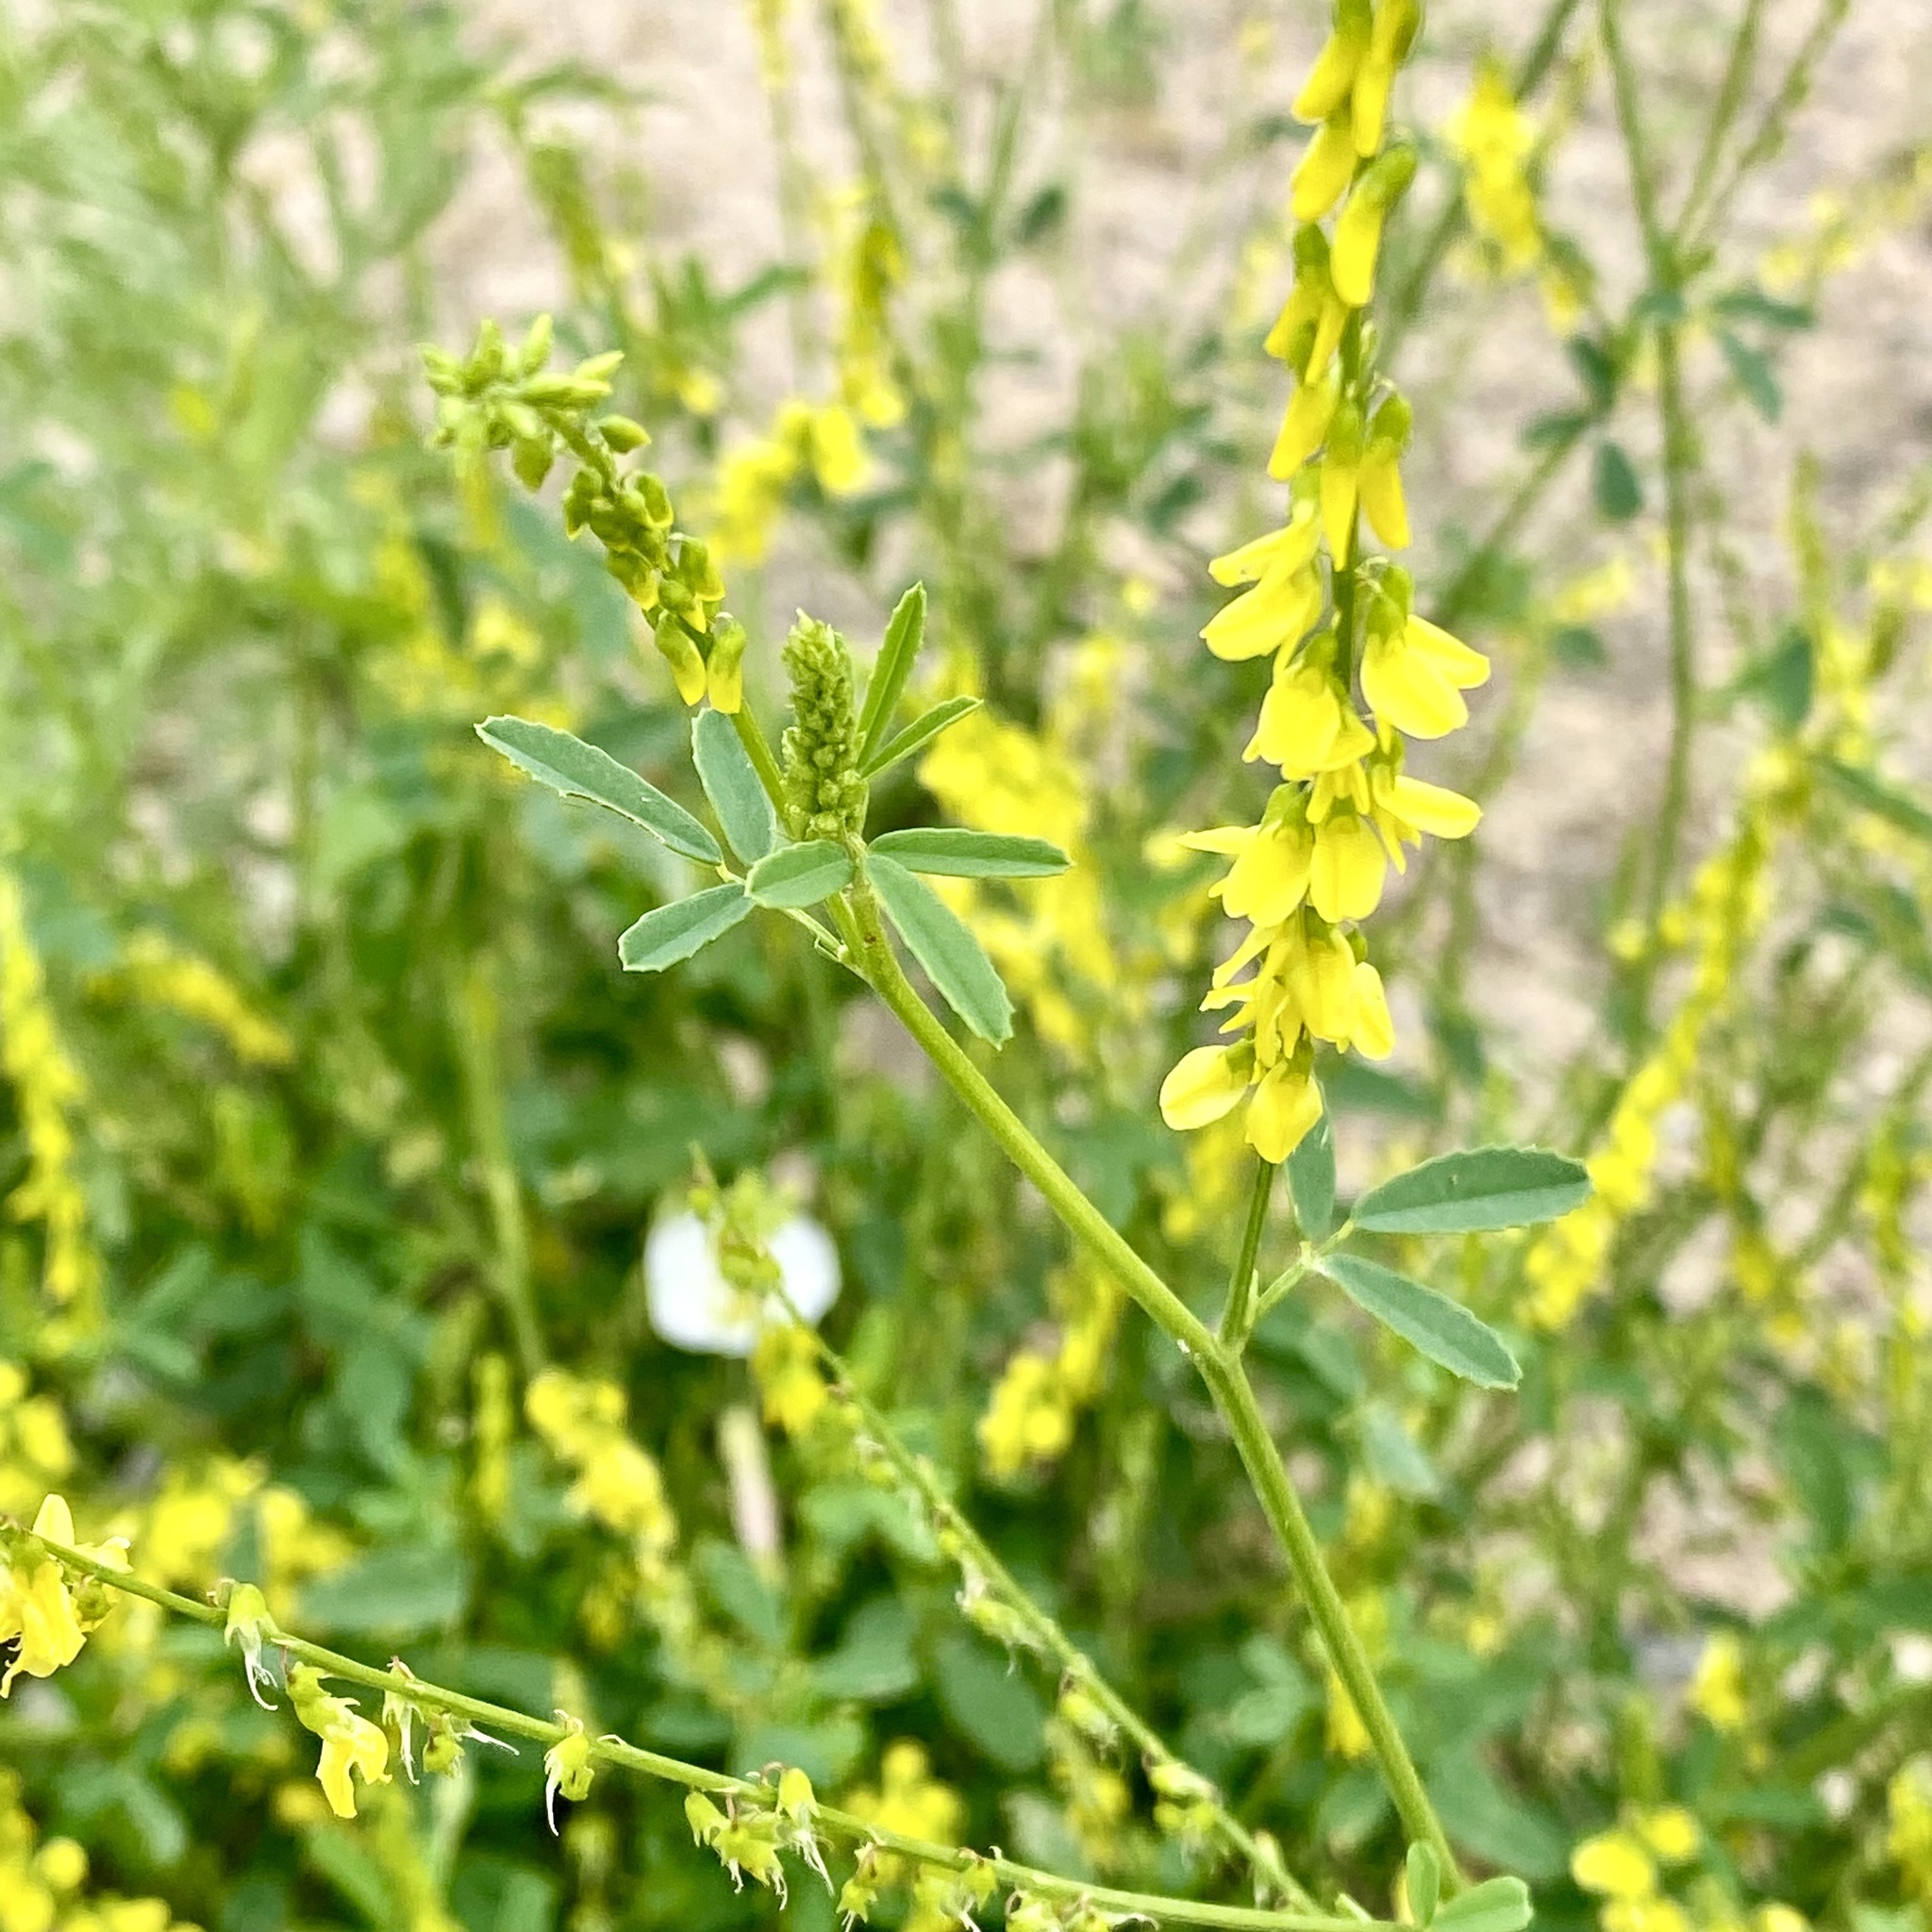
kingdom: Plantae
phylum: Tracheophyta
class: Magnoliopsida
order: Fabales
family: Fabaceae
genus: Melilotus
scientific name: Melilotus officinalis
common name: Sweetclover
